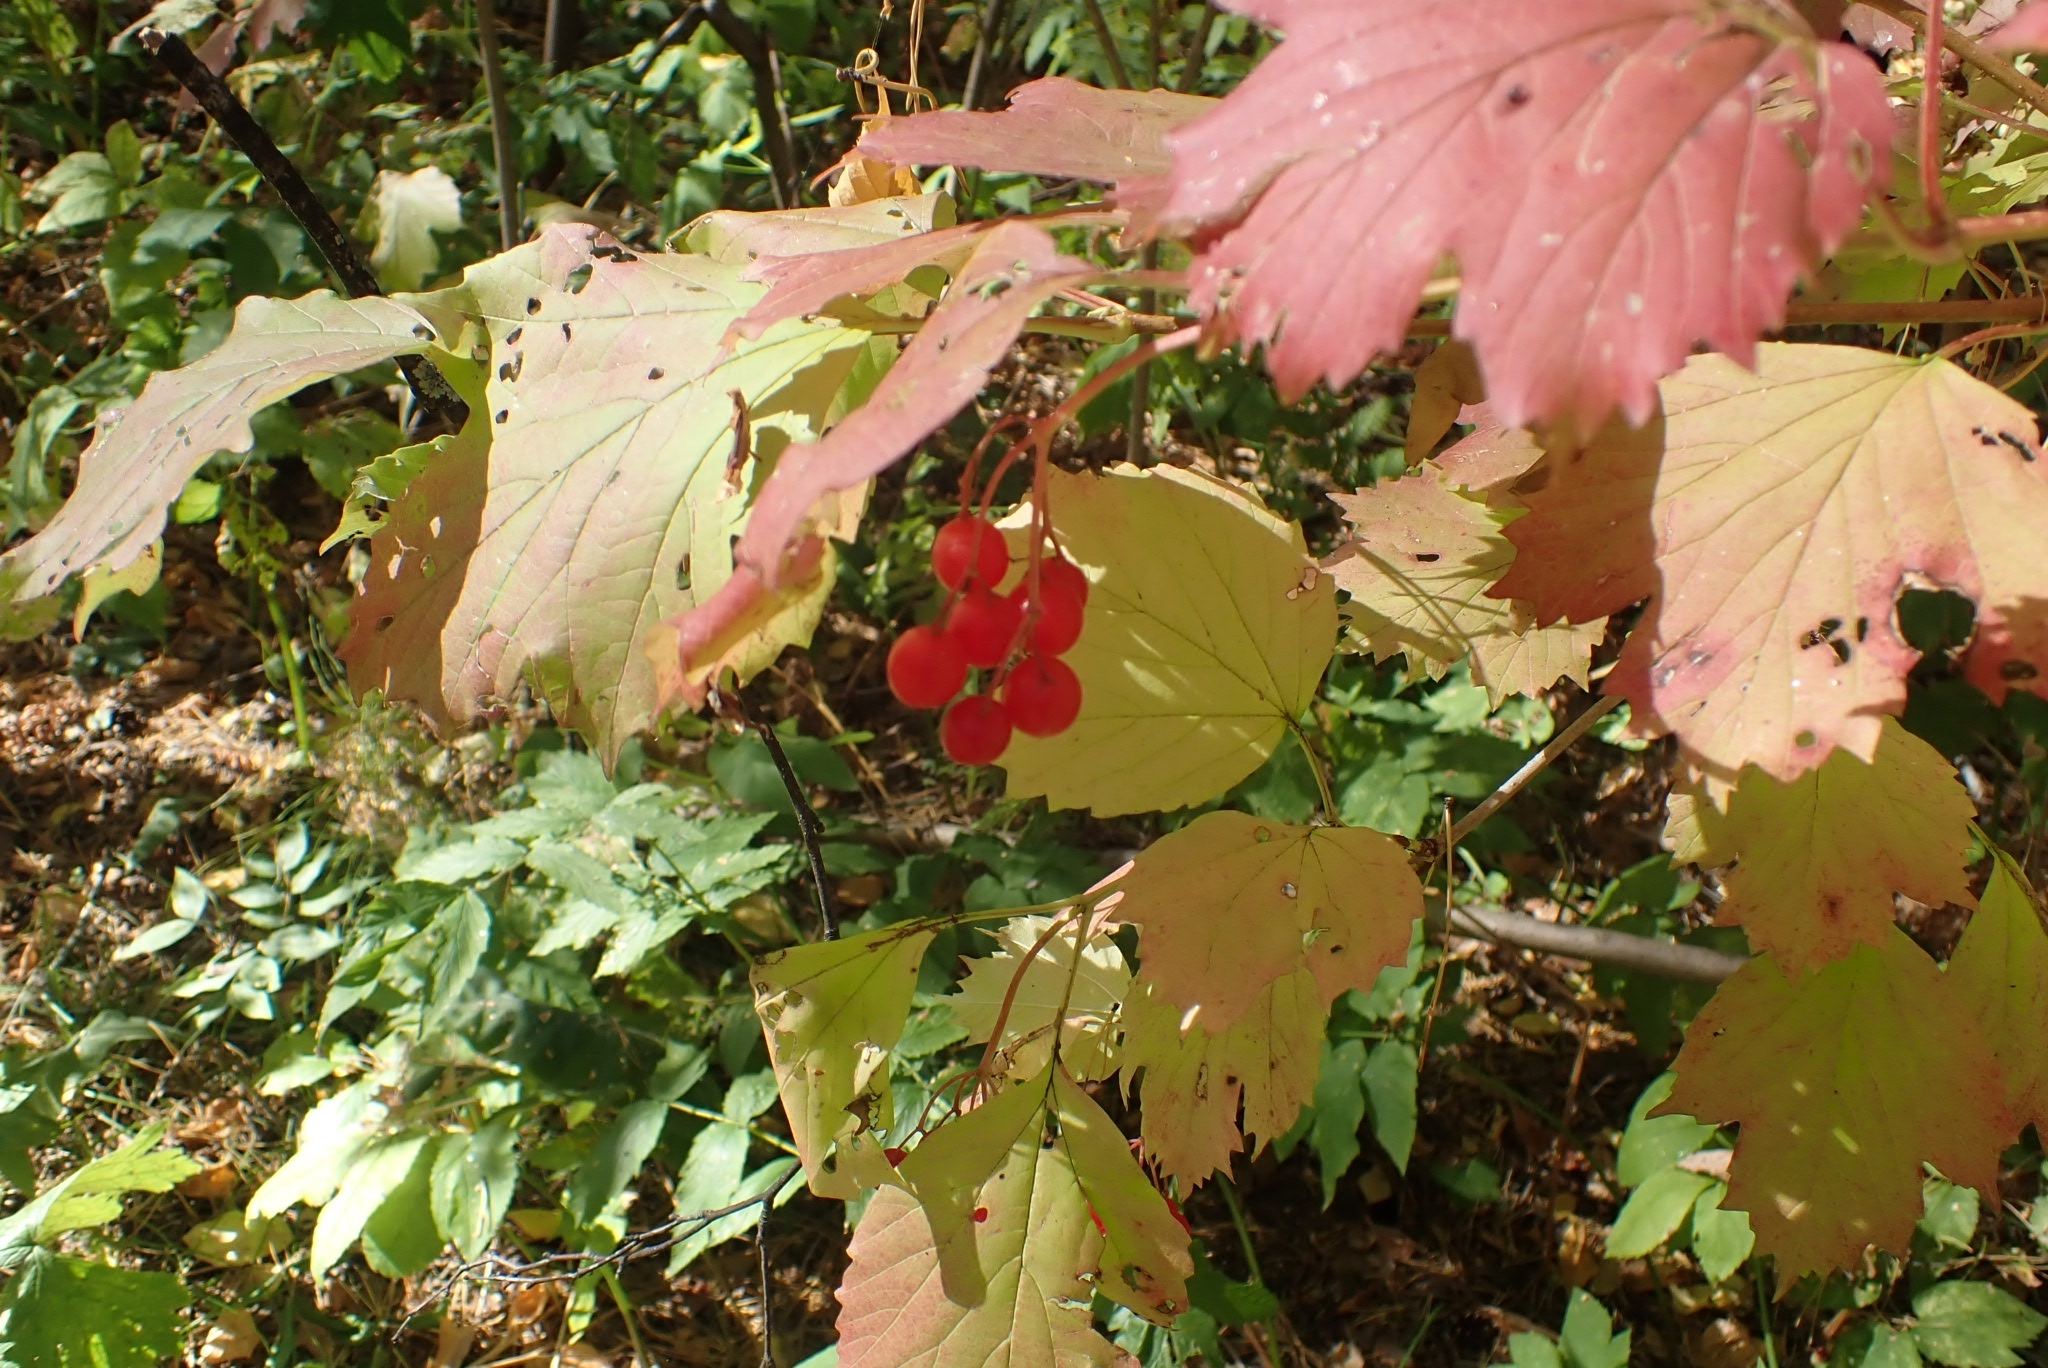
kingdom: Plantae
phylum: Tracheophyta
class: Magnoliopsida
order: Dipsacales
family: Viburnaceae
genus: Viburnum
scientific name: Viburnum opulus
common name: Guelder-rose
